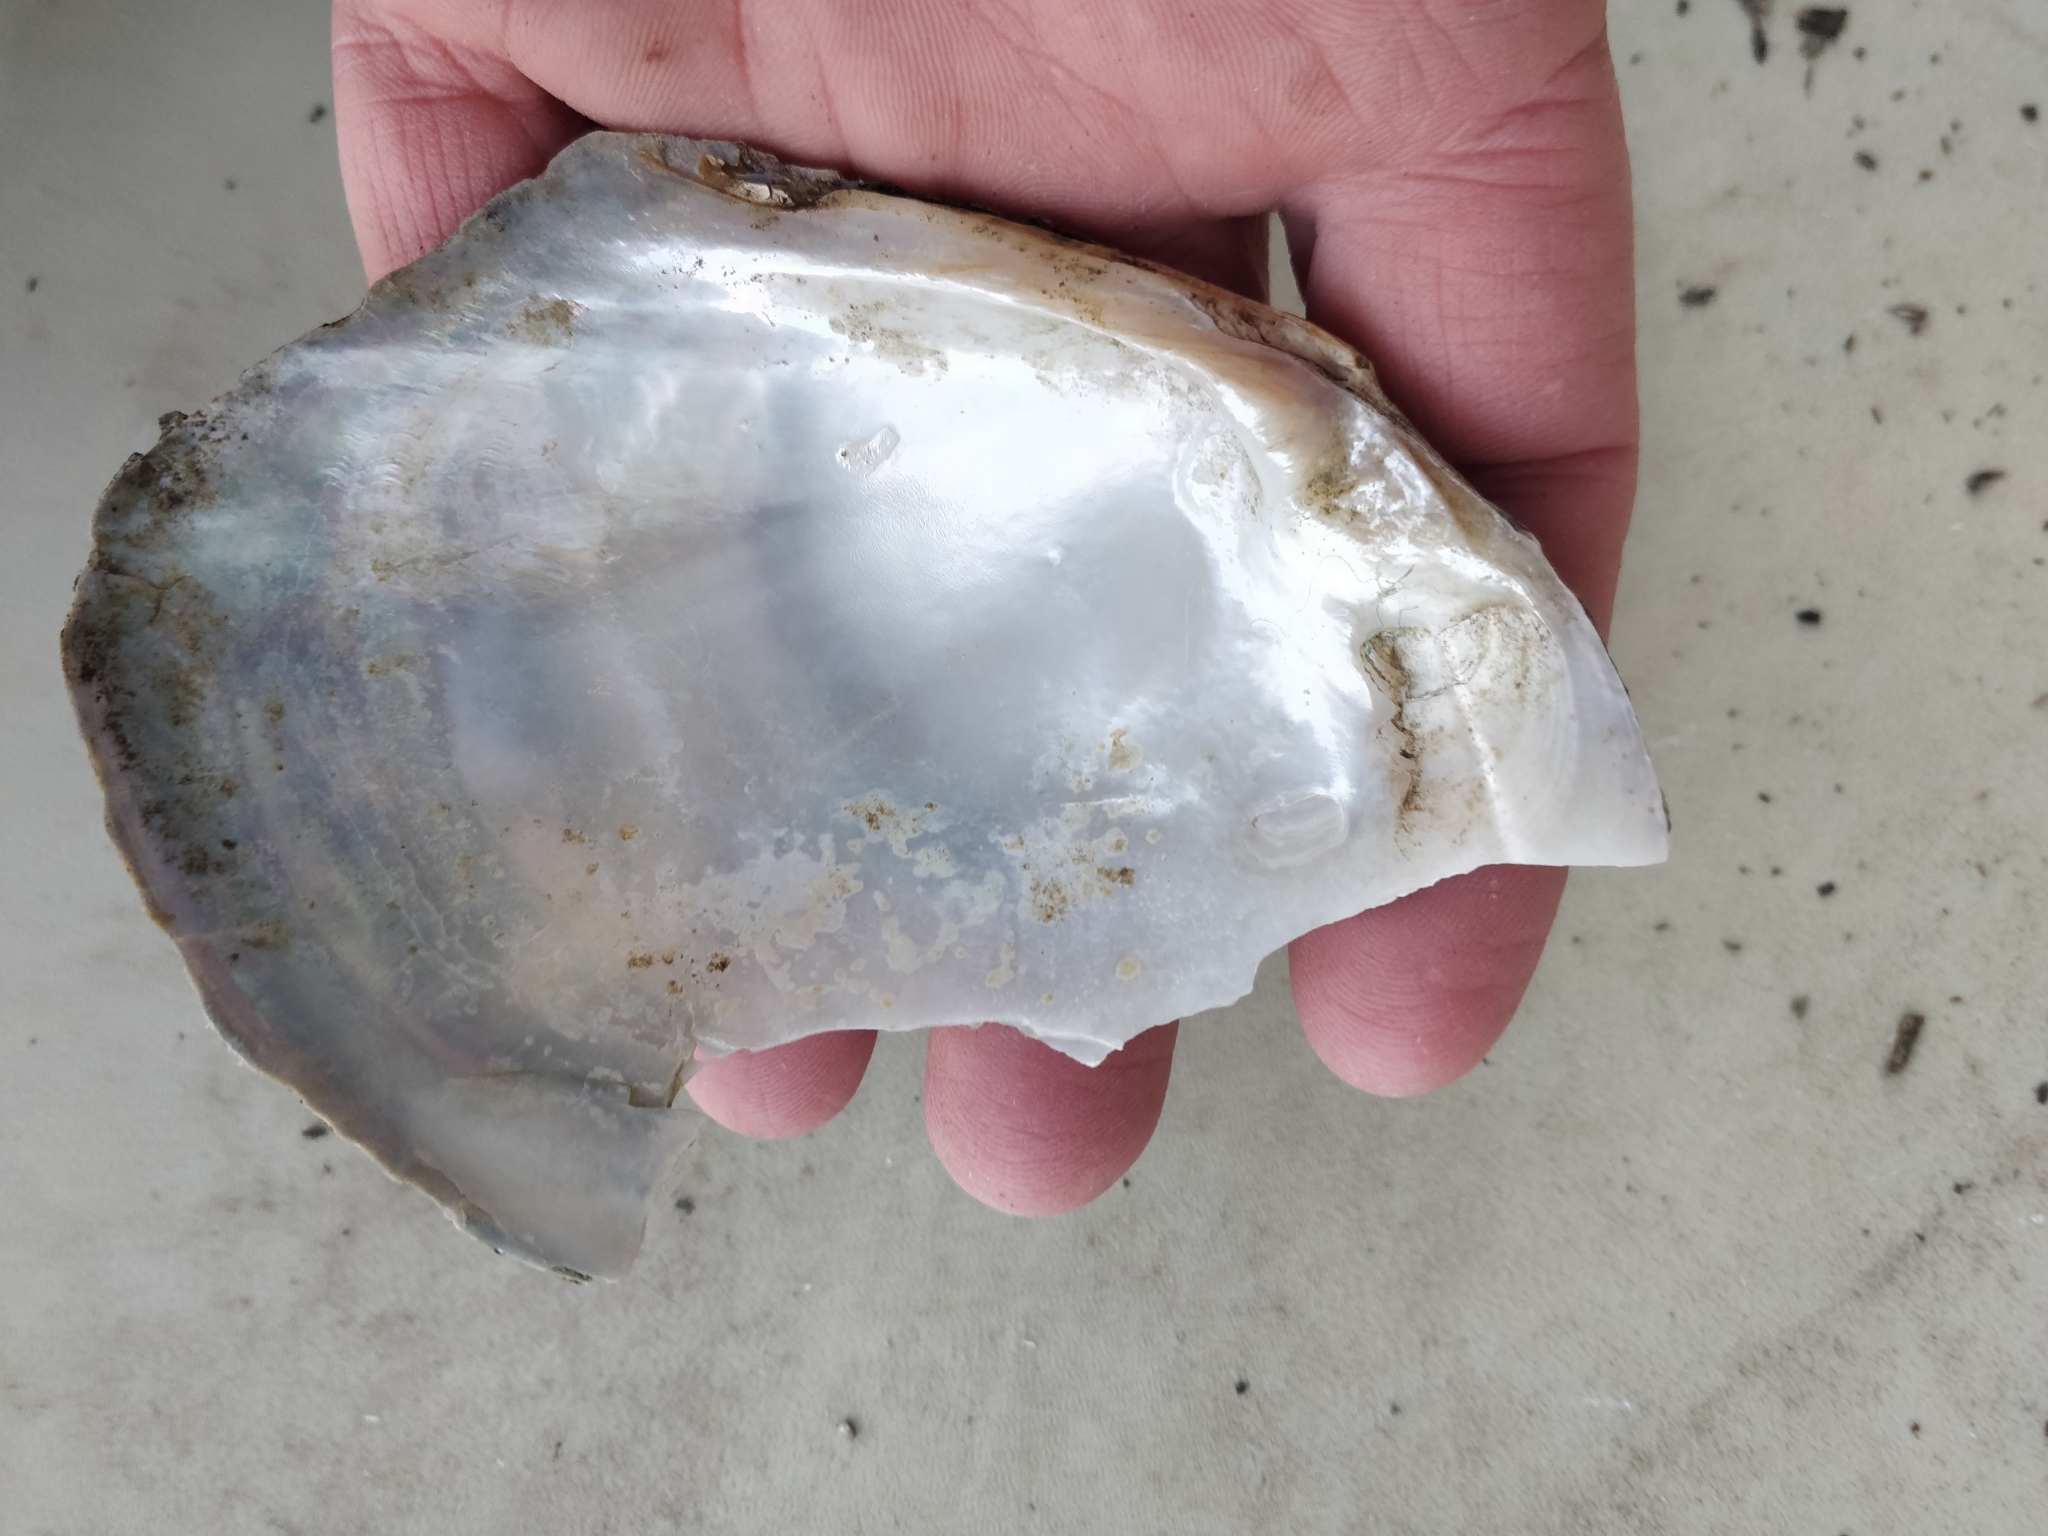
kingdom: Animalia
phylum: Mollusca
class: Bivalvia
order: Unionida
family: Unionidae
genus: Lasmigona
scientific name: Lasmigona complanata
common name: White heelsplitter
